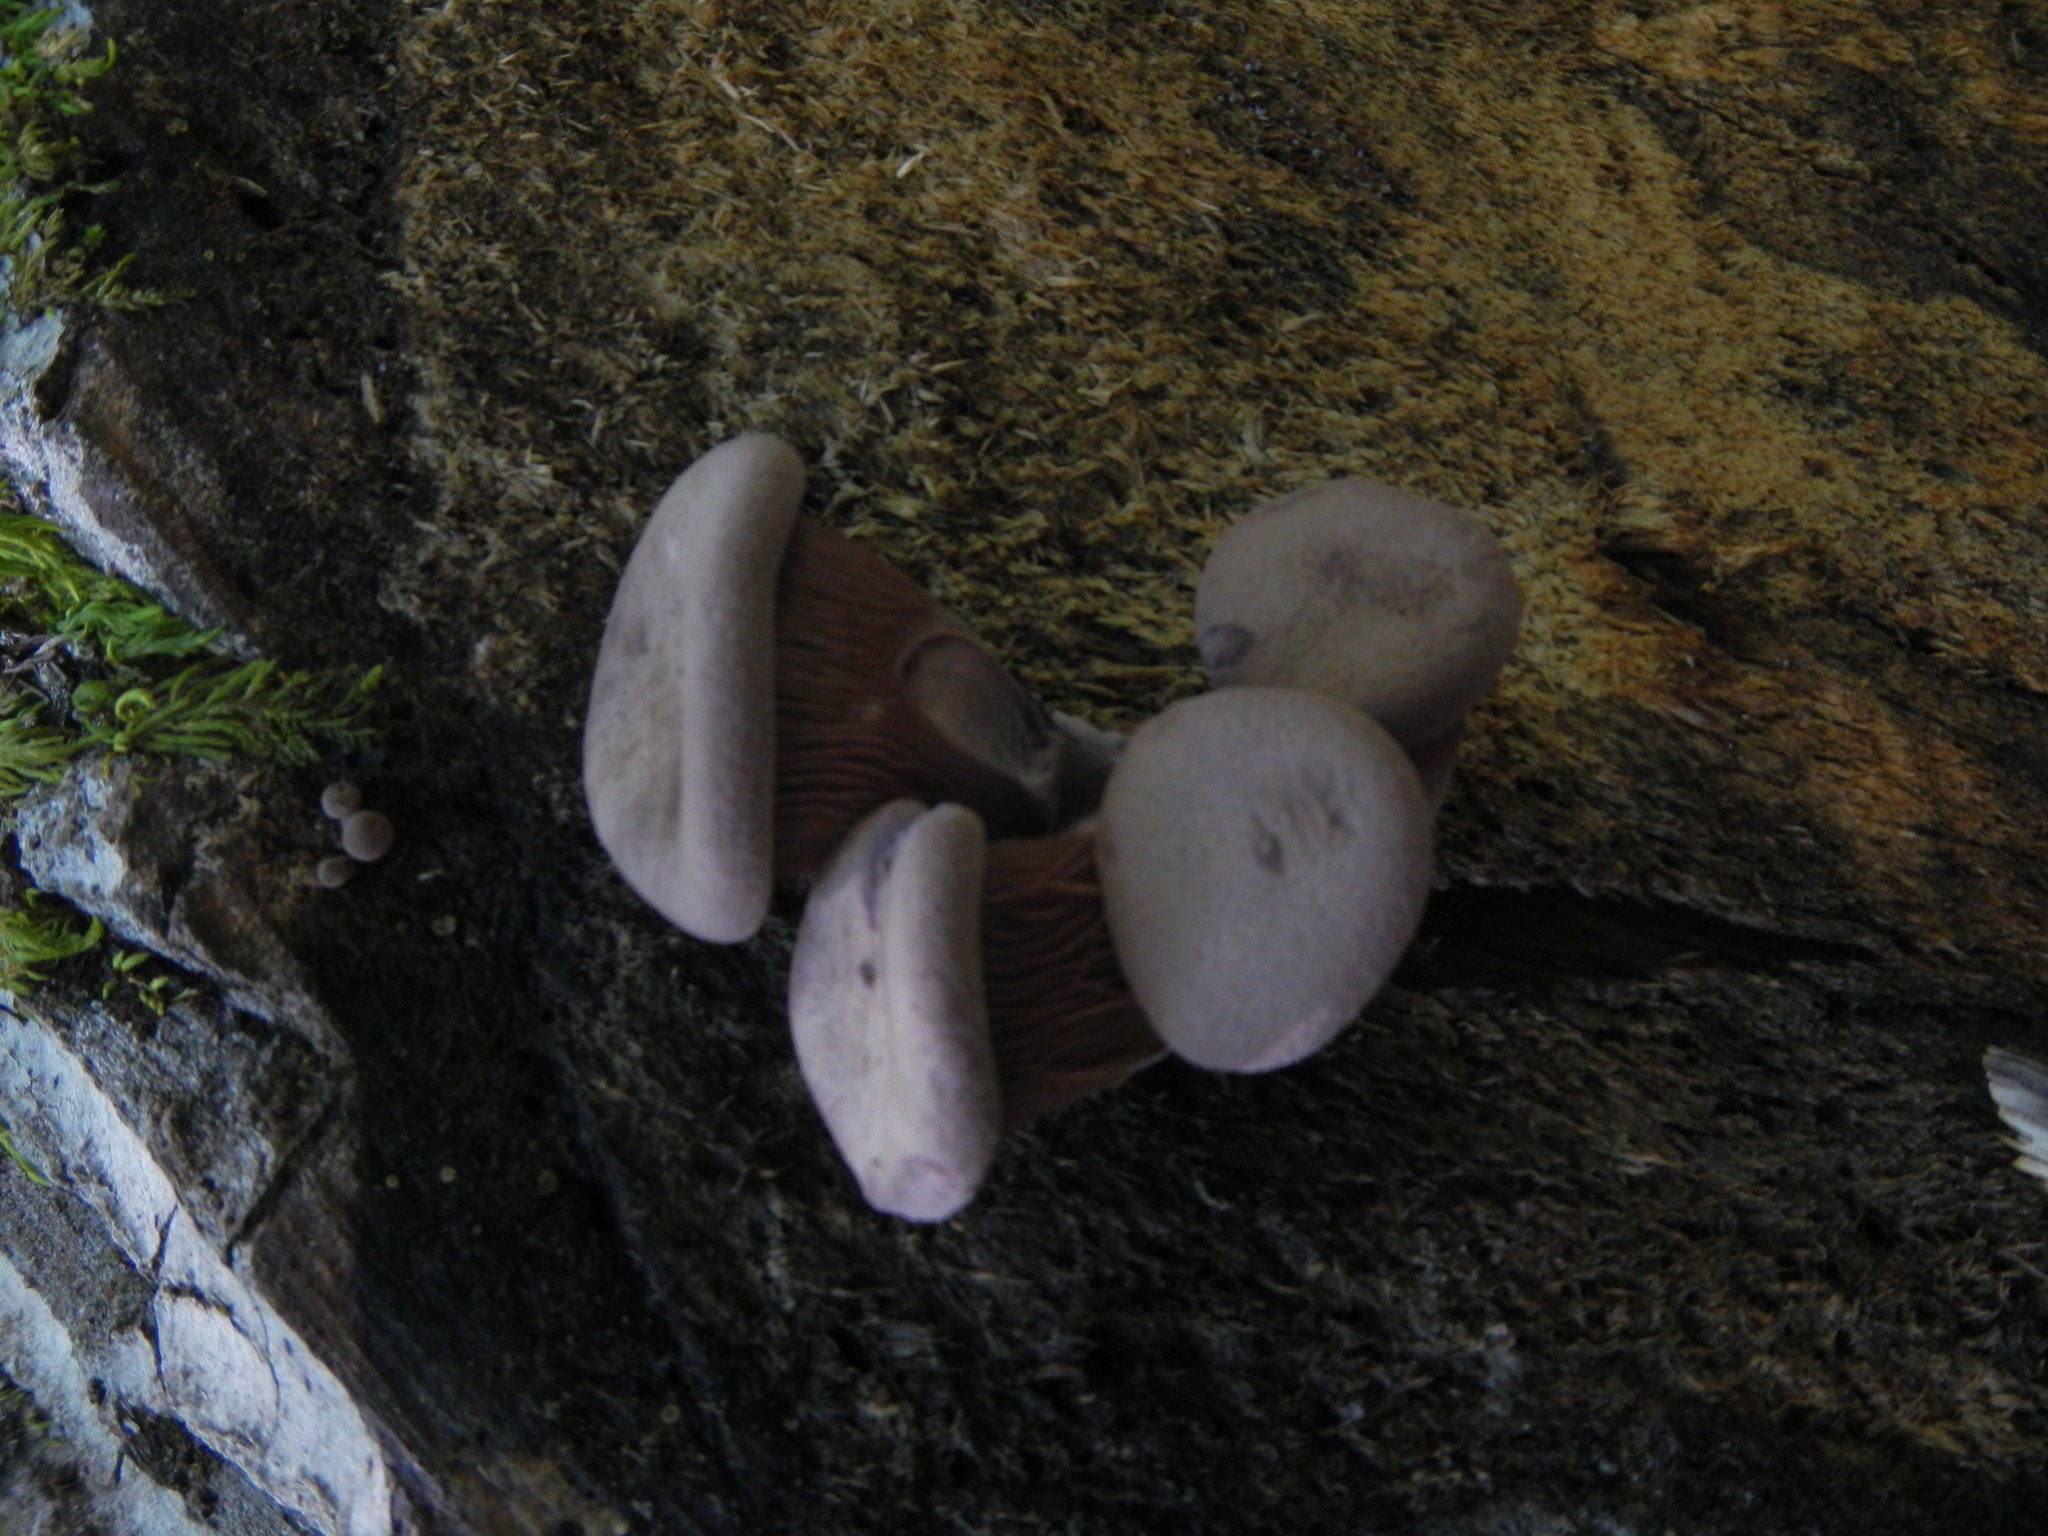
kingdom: Fungi
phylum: Basidiomycota
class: Agaricomycetes
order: Polyporales
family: Panaceae
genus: Panus
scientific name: Panus conchatus
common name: Lilac oysterling
